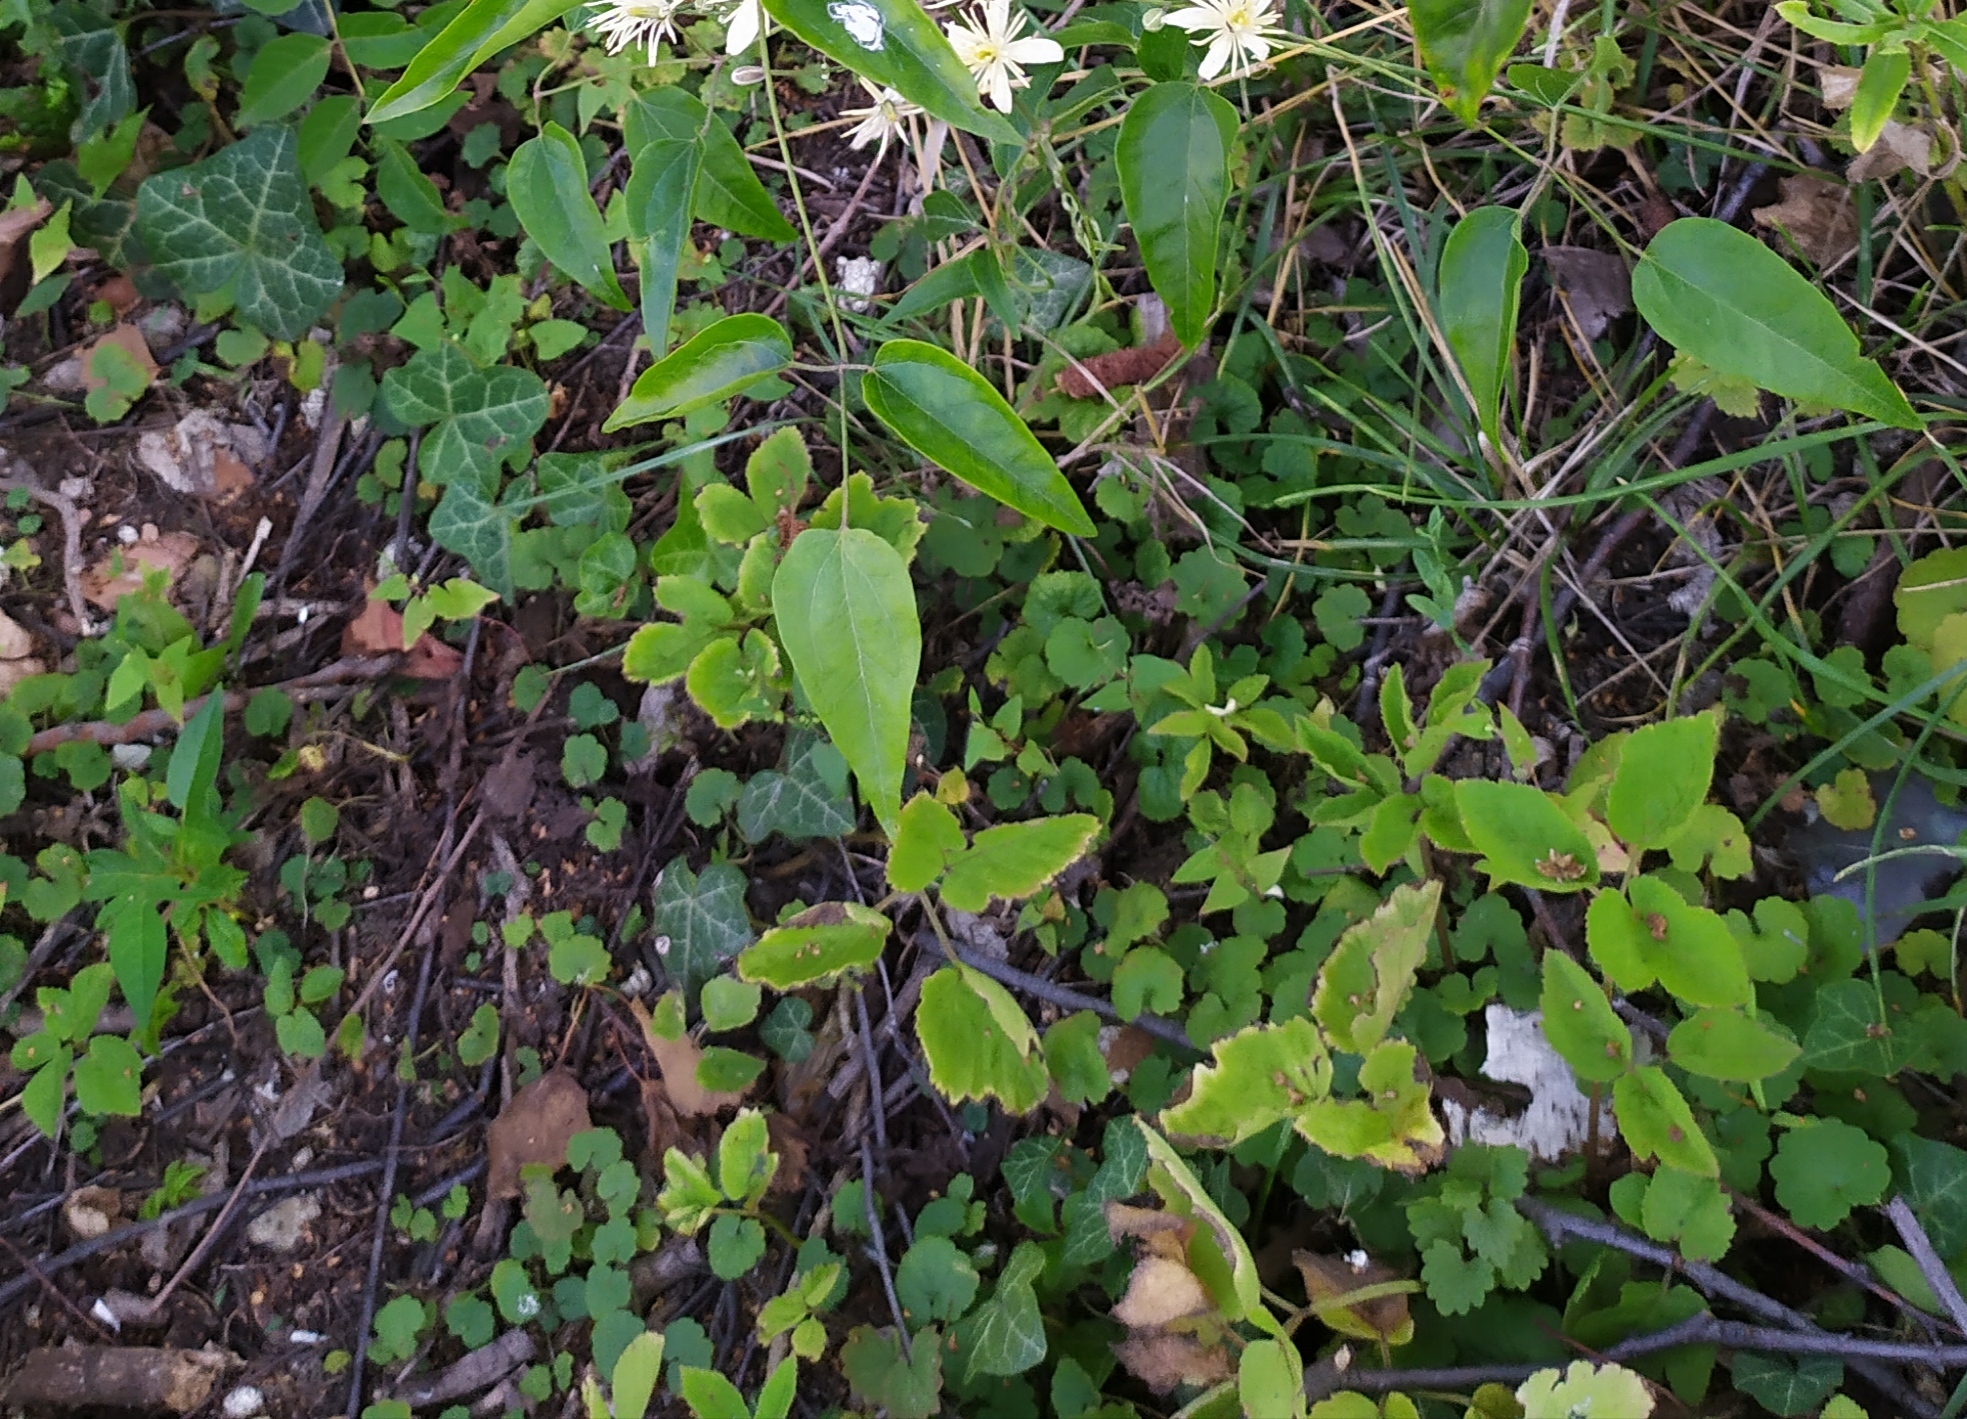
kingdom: Plantae
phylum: Tracheophyta
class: Magnoliopsida
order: Apiales
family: Apiaceae
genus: Aegopodium
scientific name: Aegopodium podagraria
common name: Ground-elder
